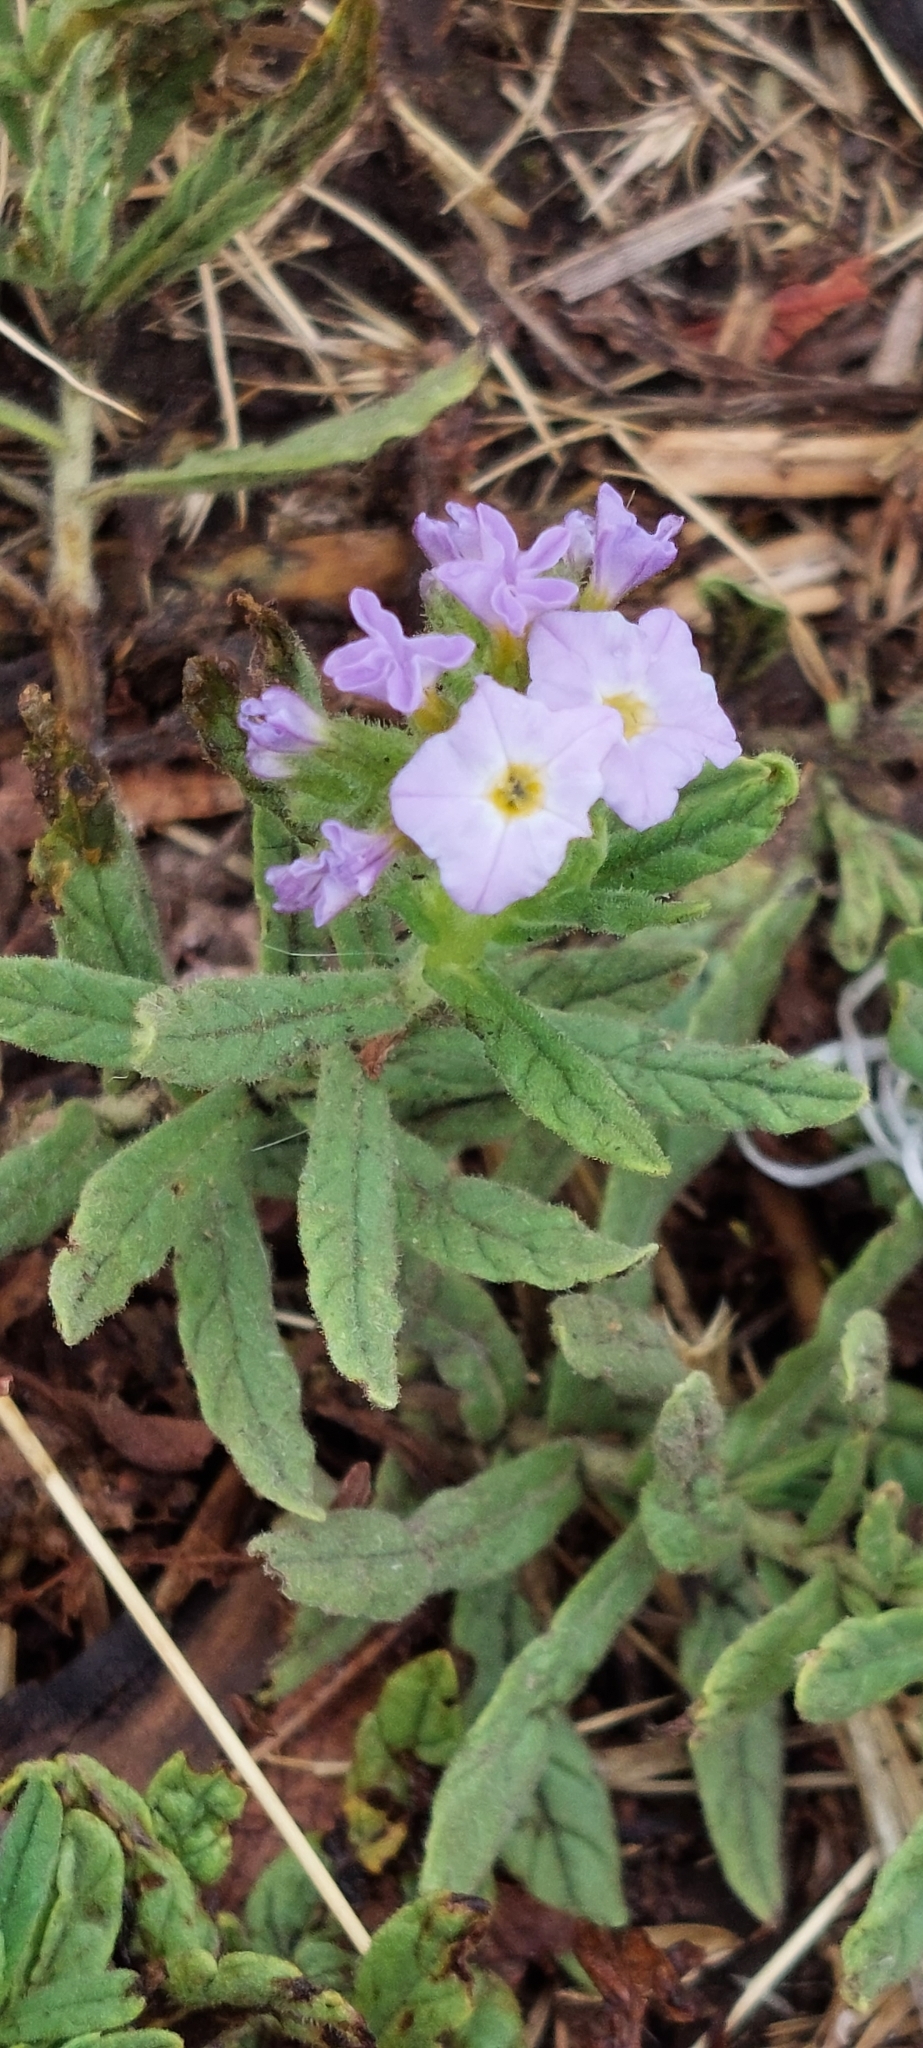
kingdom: Plantae
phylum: Tracheophyta
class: Magnoliopsida
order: Boraginales
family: Heliotropiaceae
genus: Heliotropium
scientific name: Heliotropium amplexicaule
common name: Clasping heliotrope
